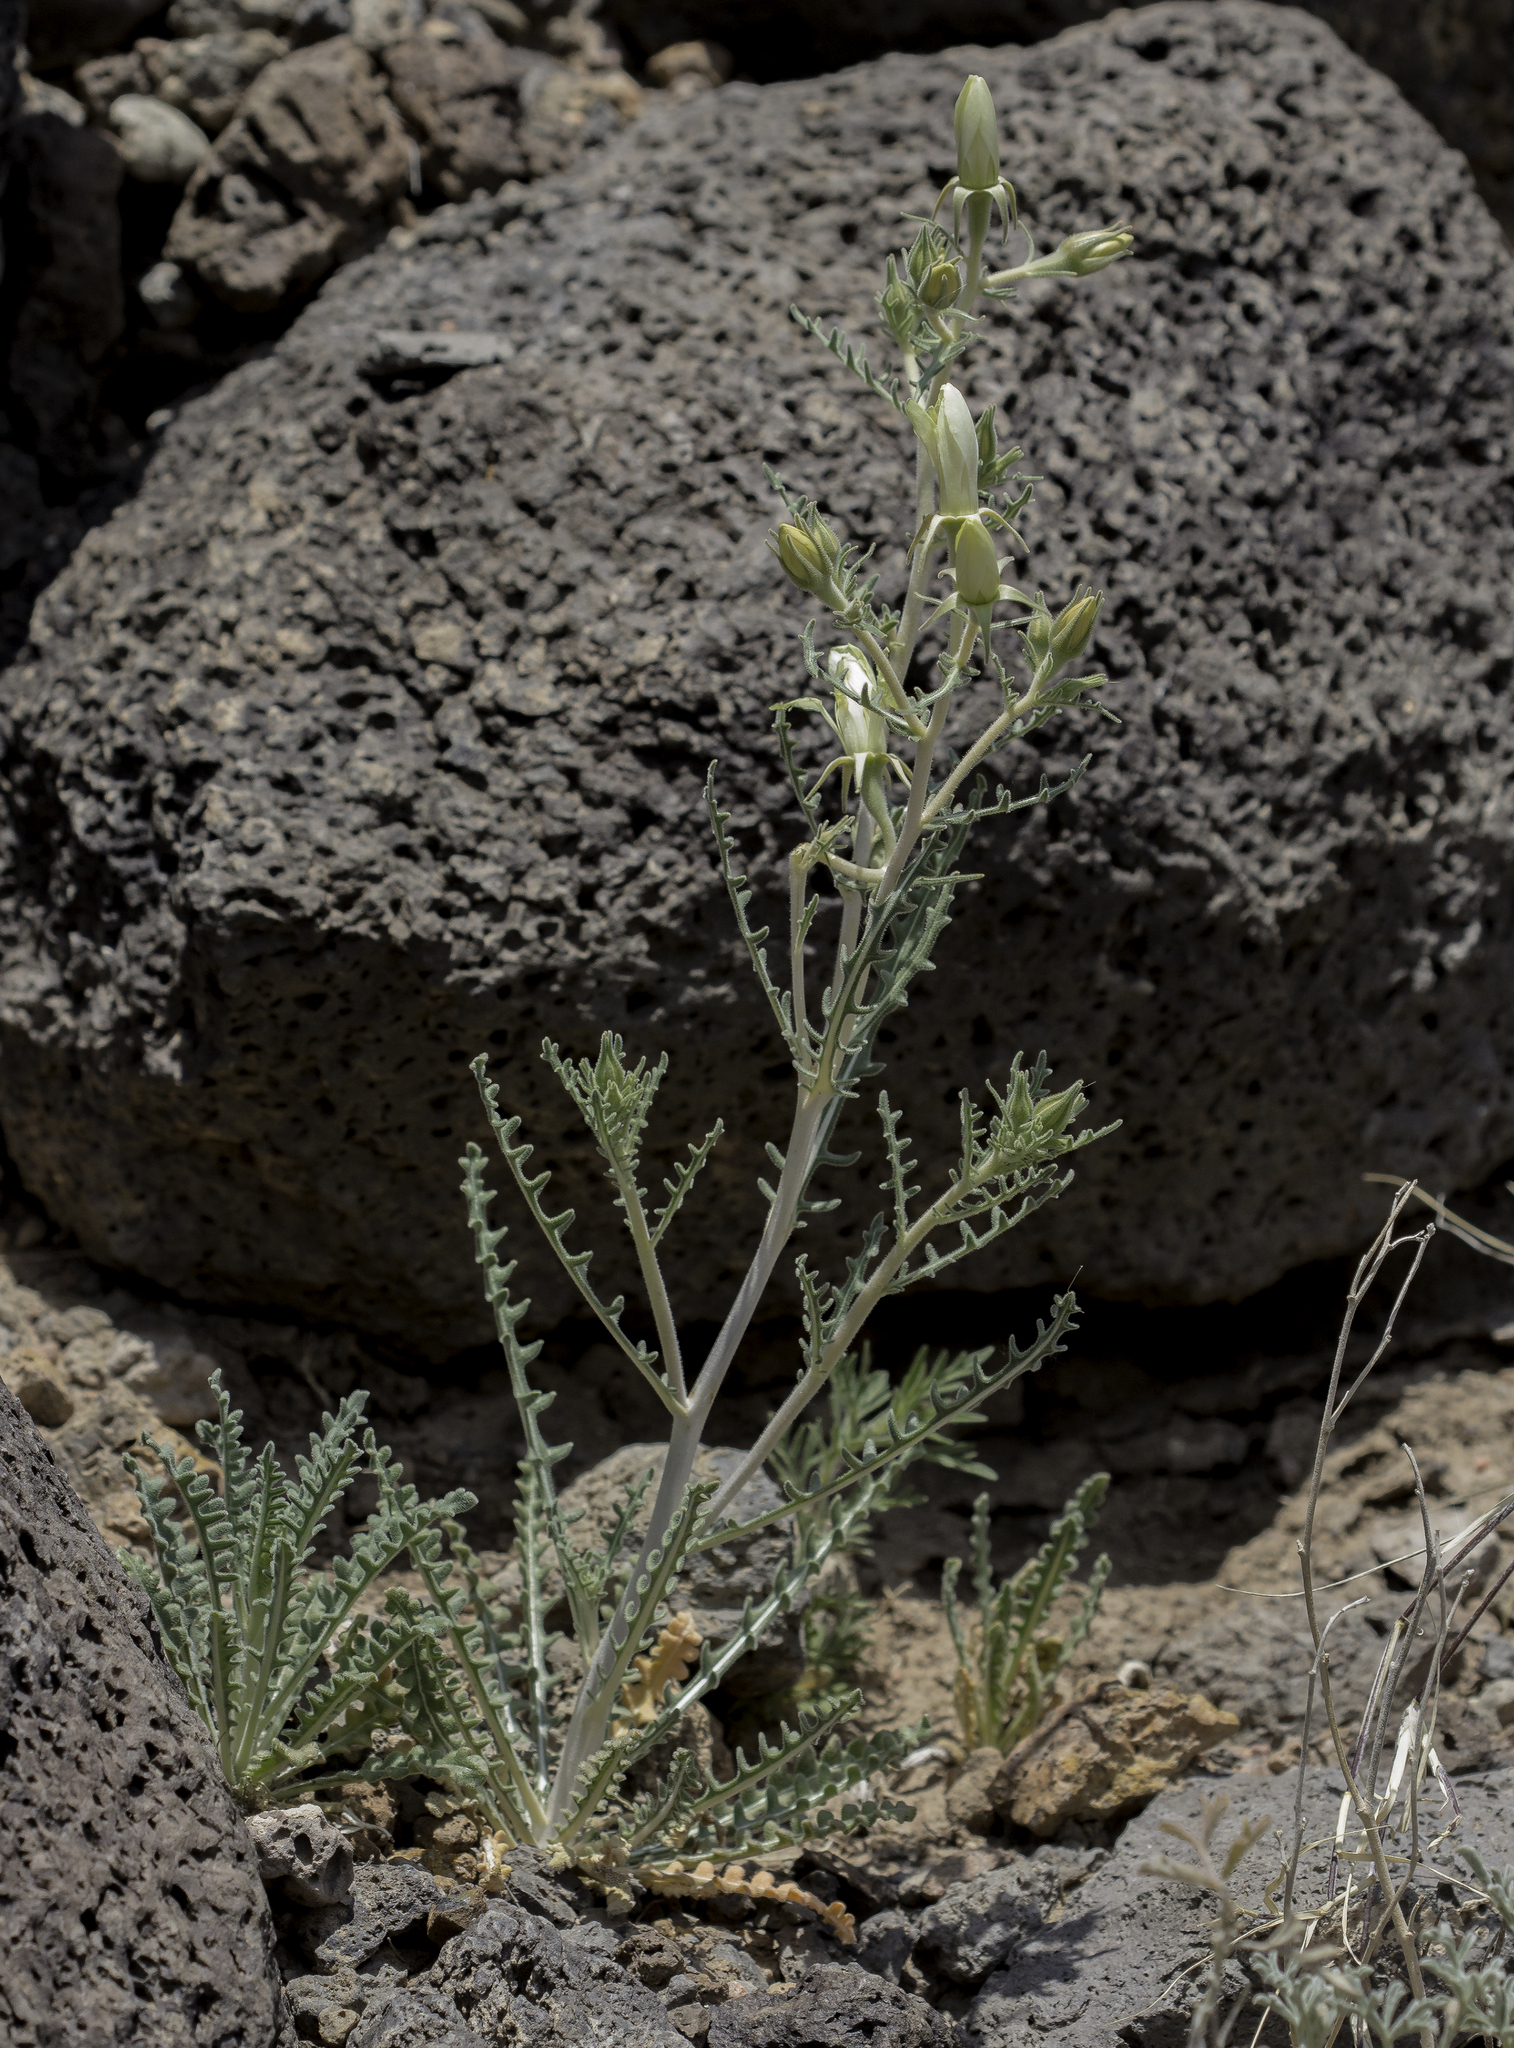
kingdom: Plantae
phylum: Tracheophyta
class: Magnoliopsida
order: Cornales
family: Loasaceae
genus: Mentzelia
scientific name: Mentzelia multiflora
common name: Adonis blazingstar
